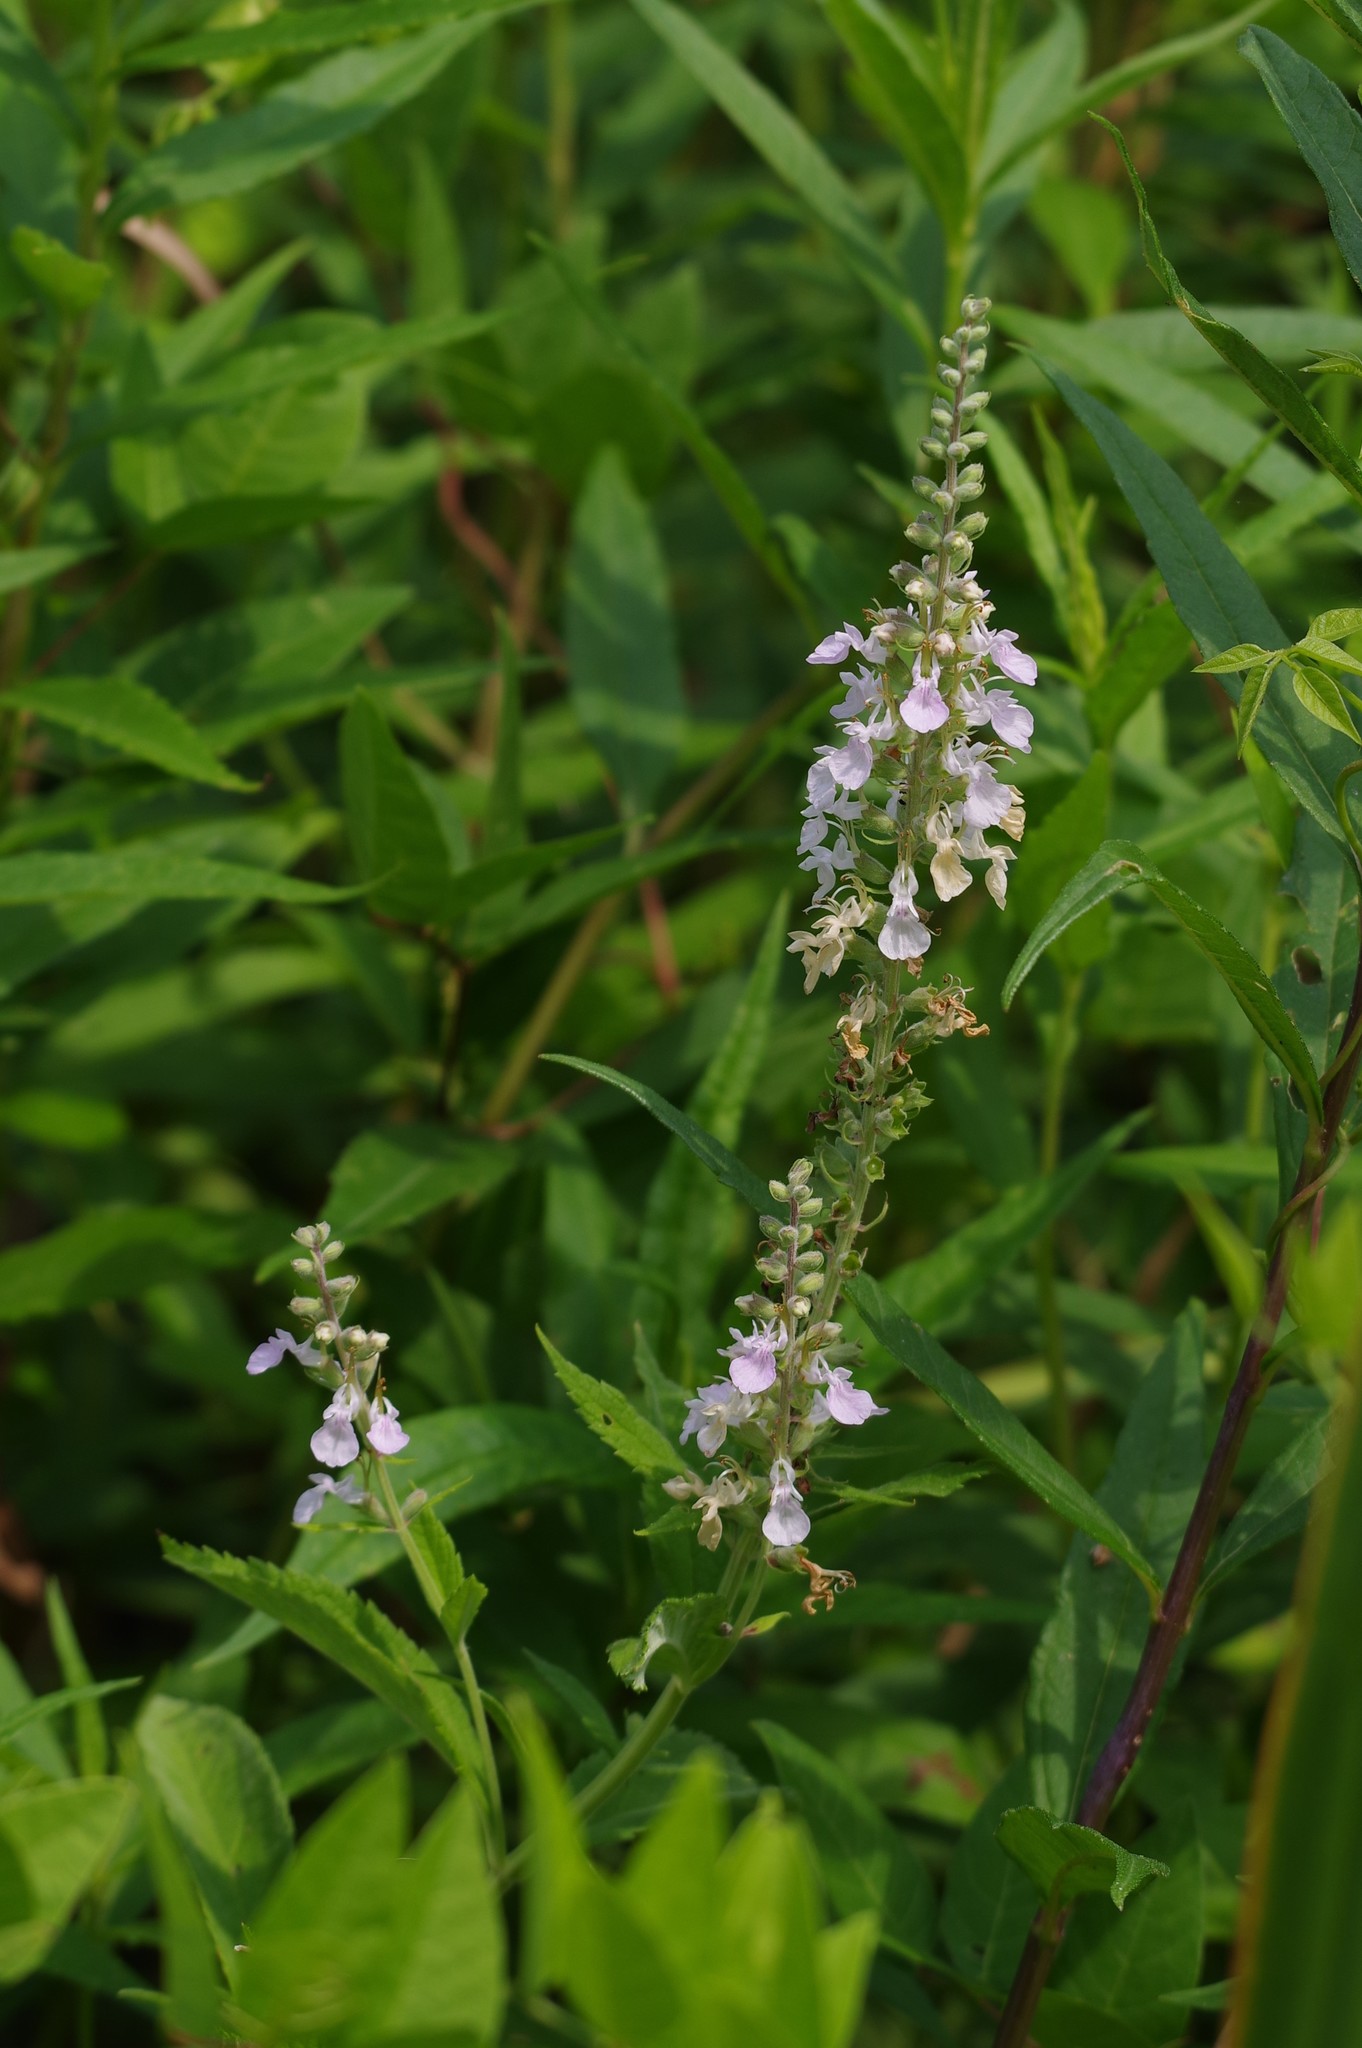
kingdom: Plantae
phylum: Tracheophyta
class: Magnoliopsida
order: Lamiales
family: Lamiaceae
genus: Teucrium
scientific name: Teucrium canadense
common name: American germander
